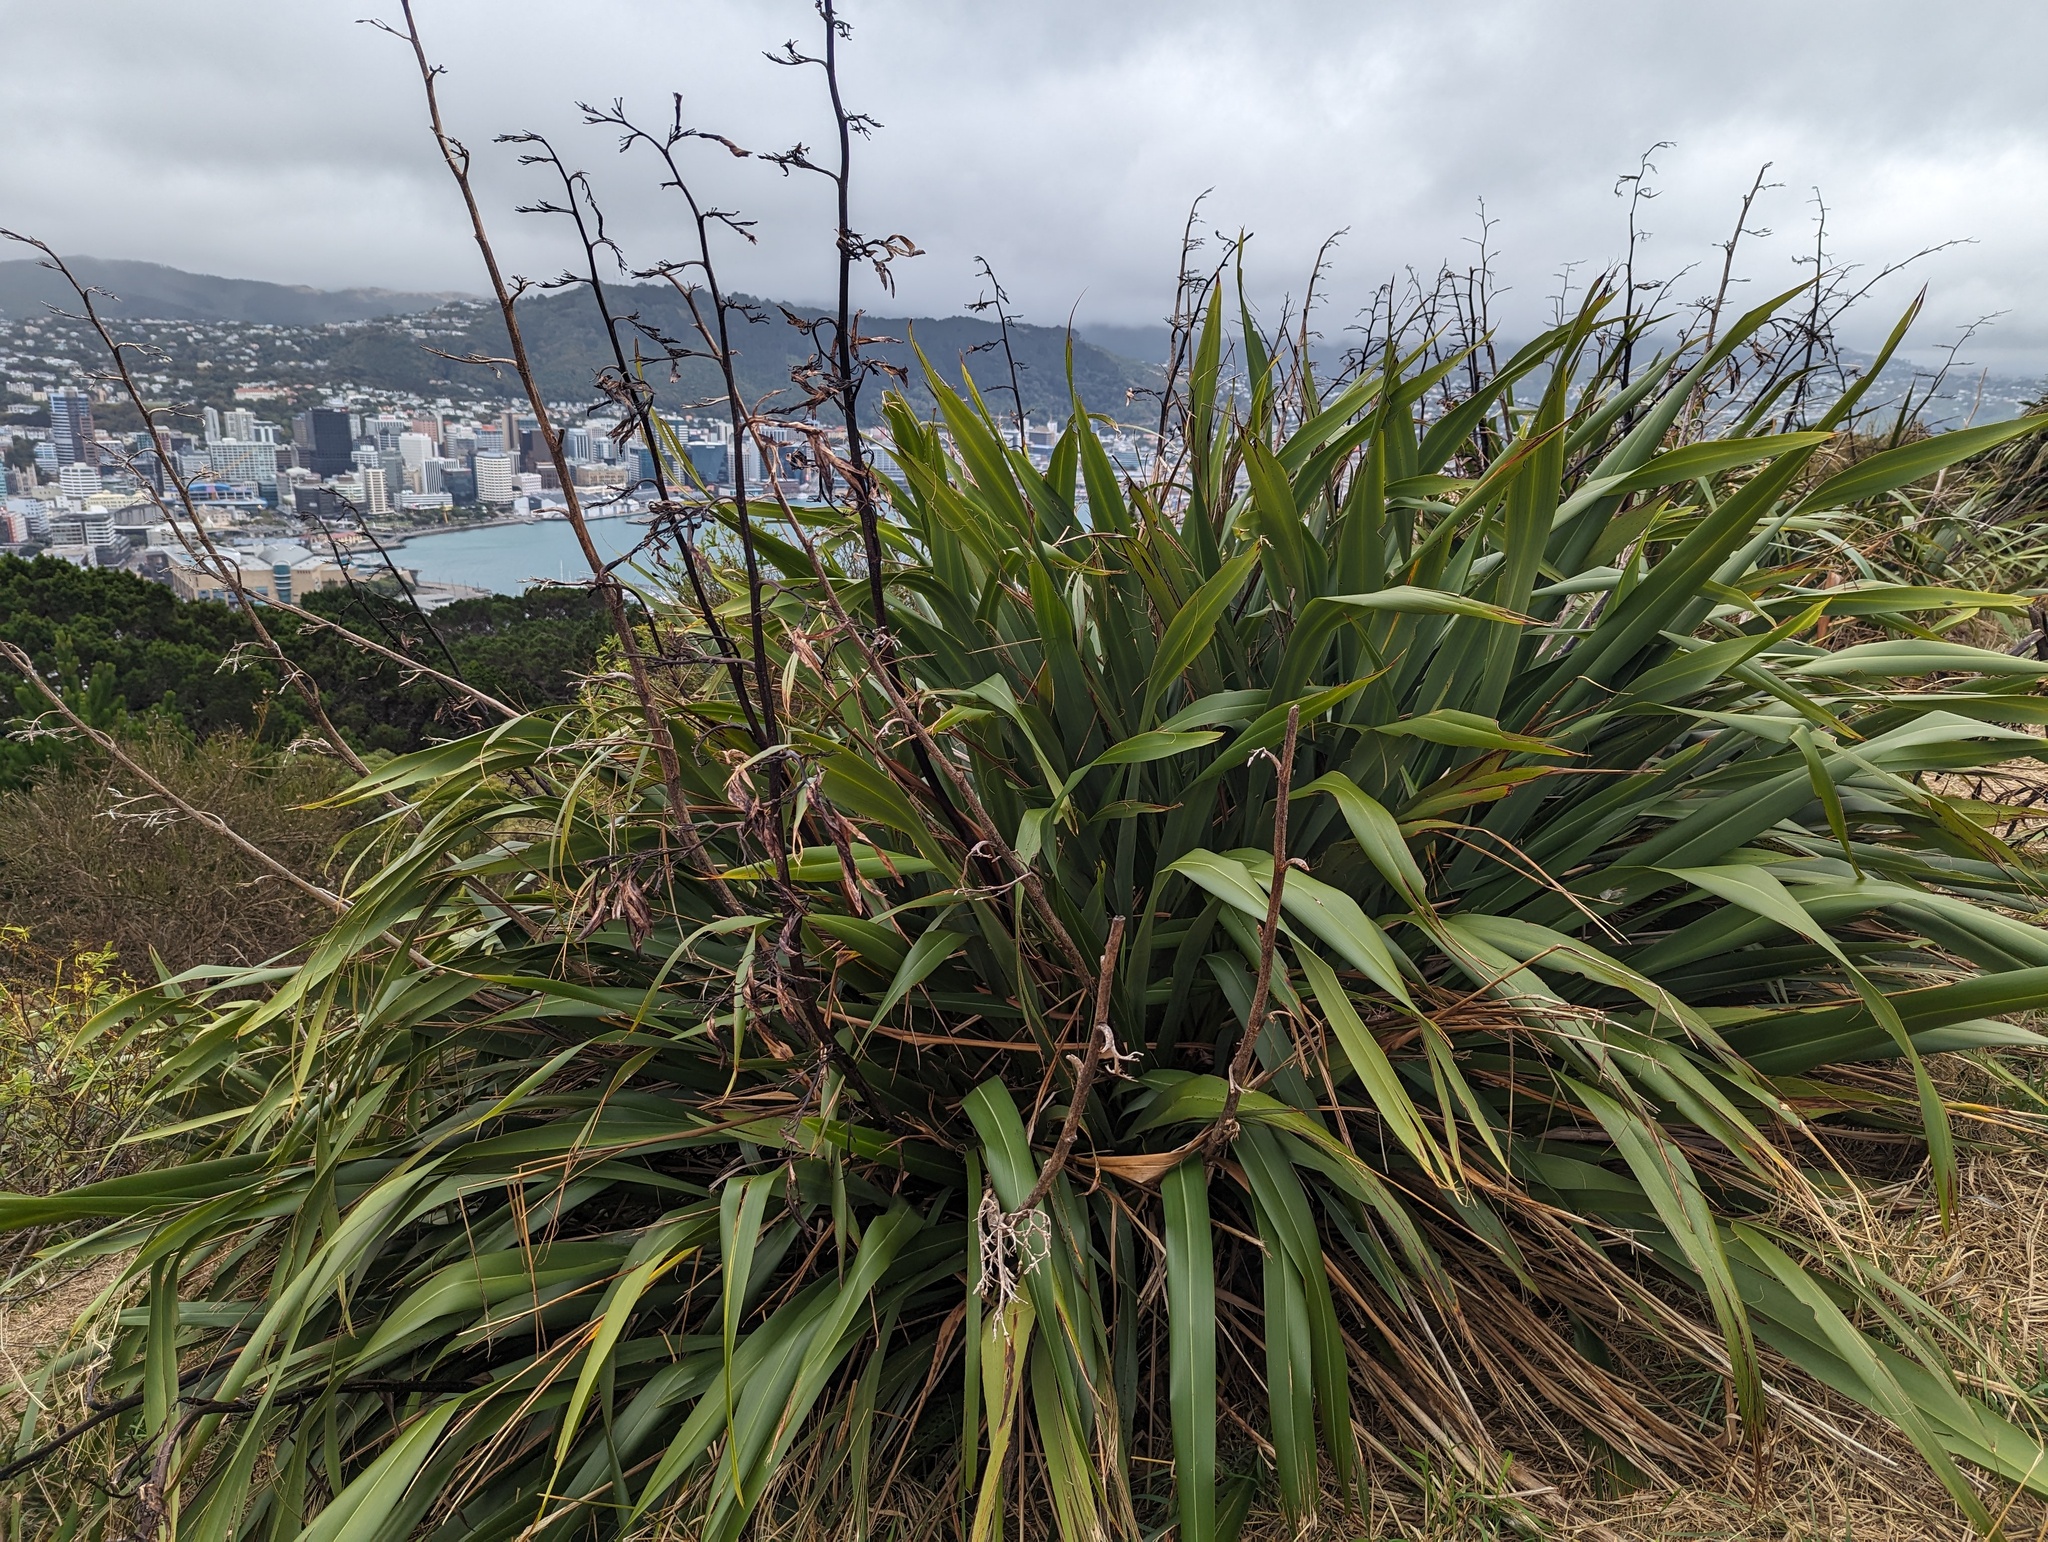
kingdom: Plantae
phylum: Tracheophyta
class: Liliopsida
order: Asparagales
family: Asphodelaceae
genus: Phormium
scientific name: Phormium tenax
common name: New zealand flax
